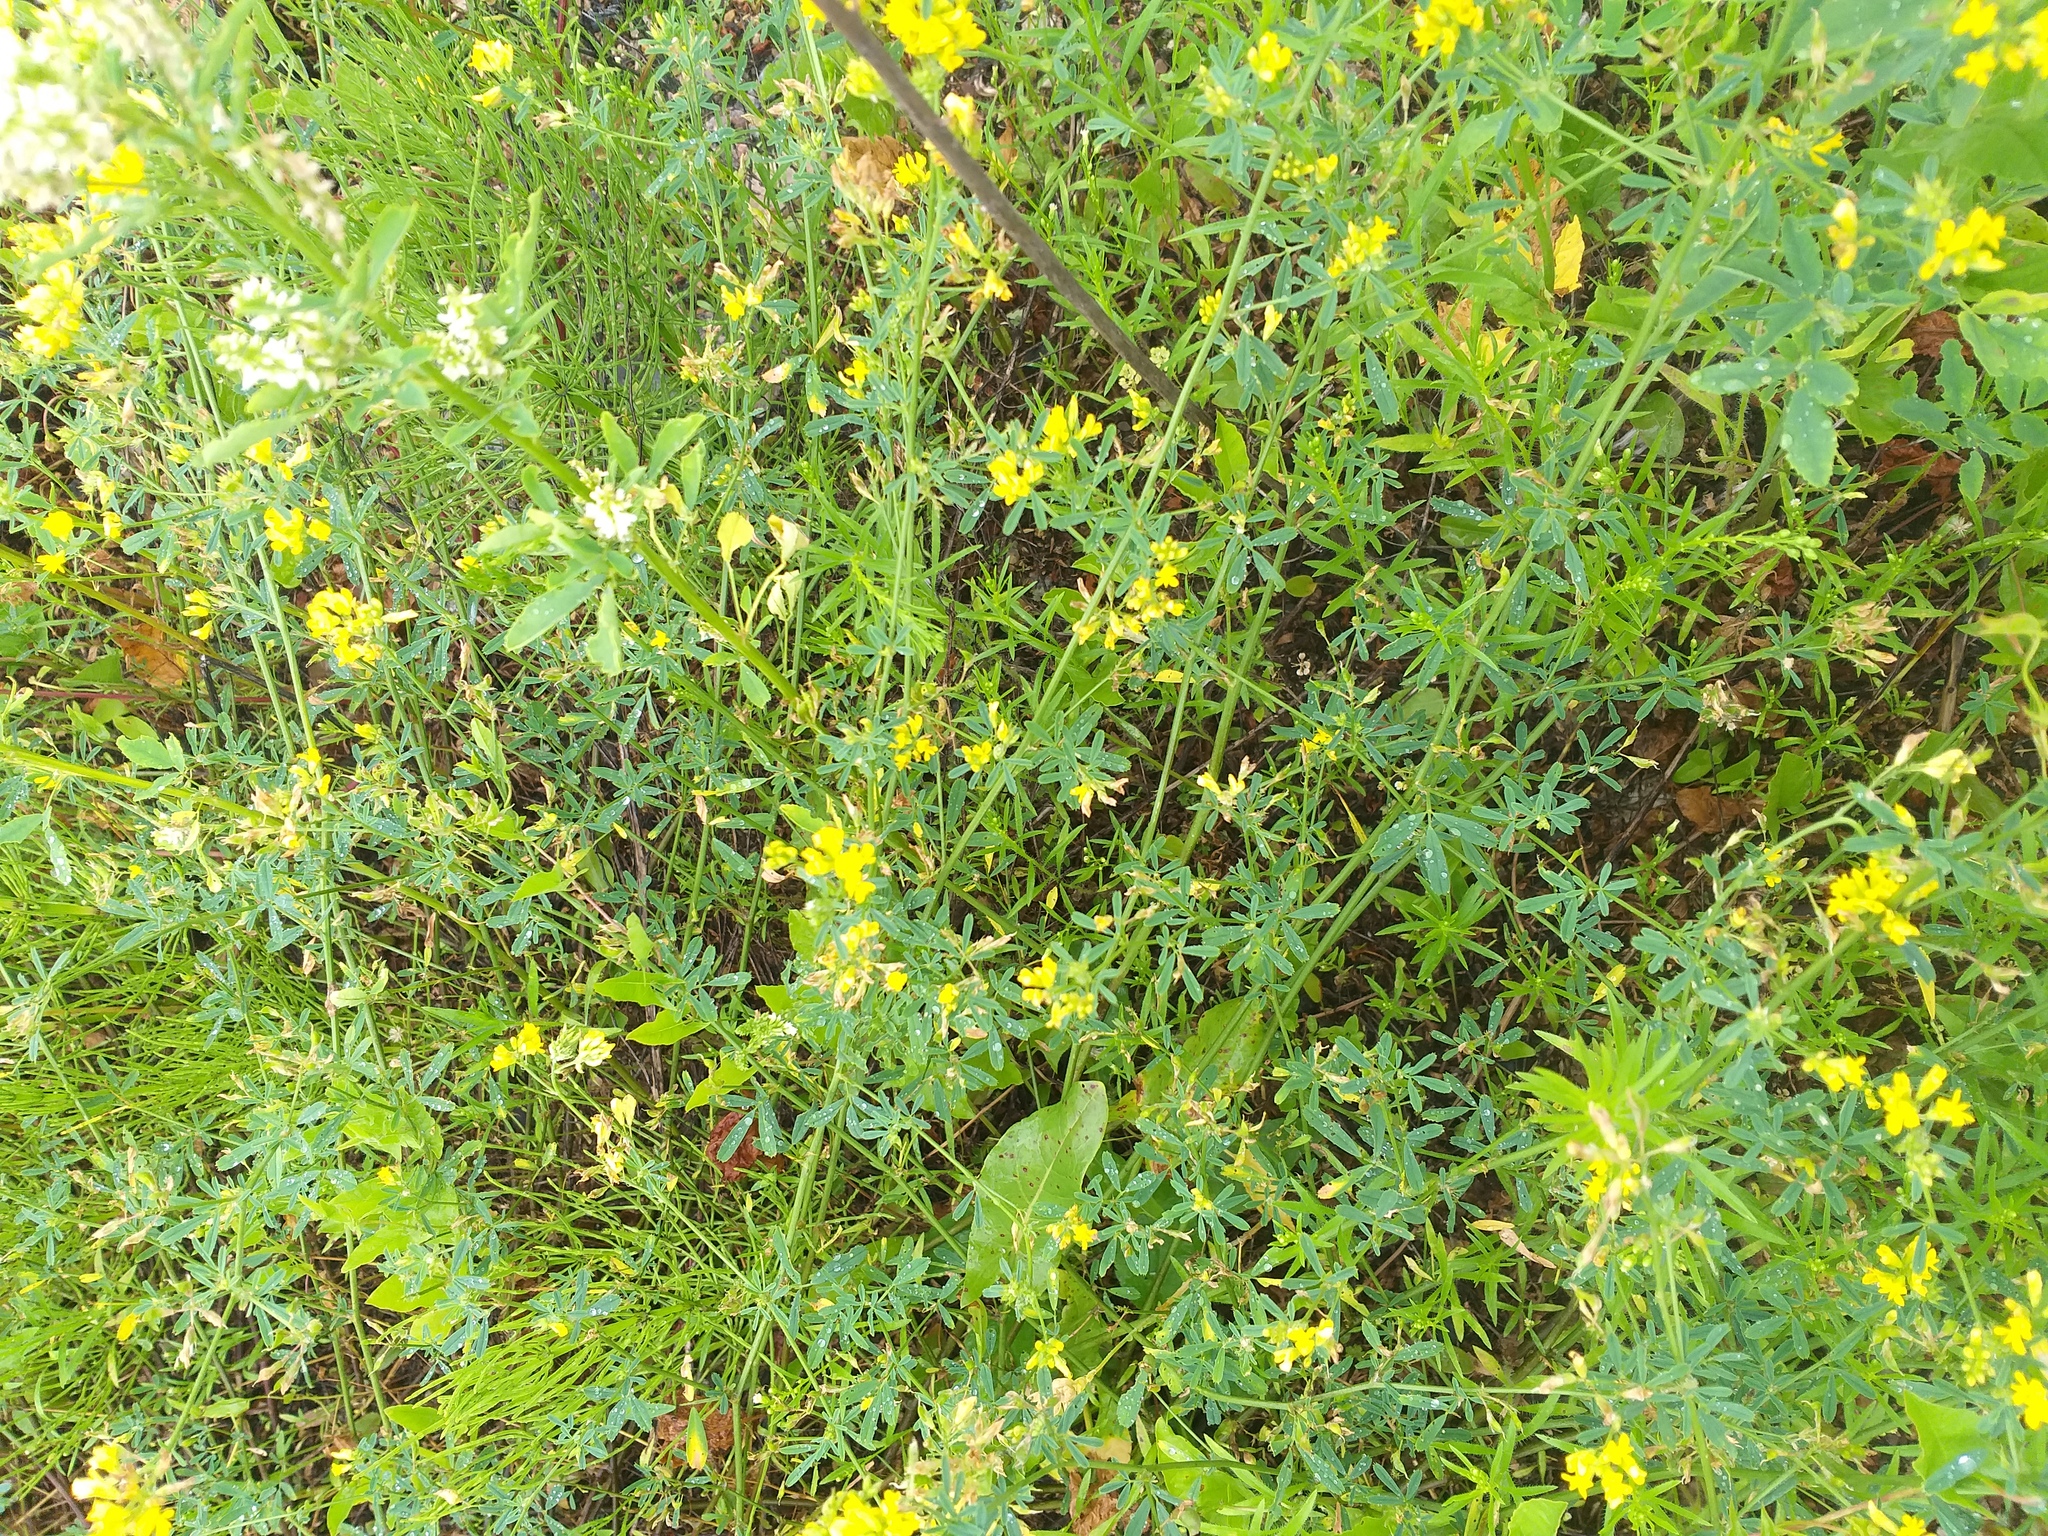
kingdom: Plantae
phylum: Tracheophyta
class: Magnoliopsida
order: Fabales
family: Fabaceae
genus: Medicago
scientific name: Medicago falcata
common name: Sickle medick
